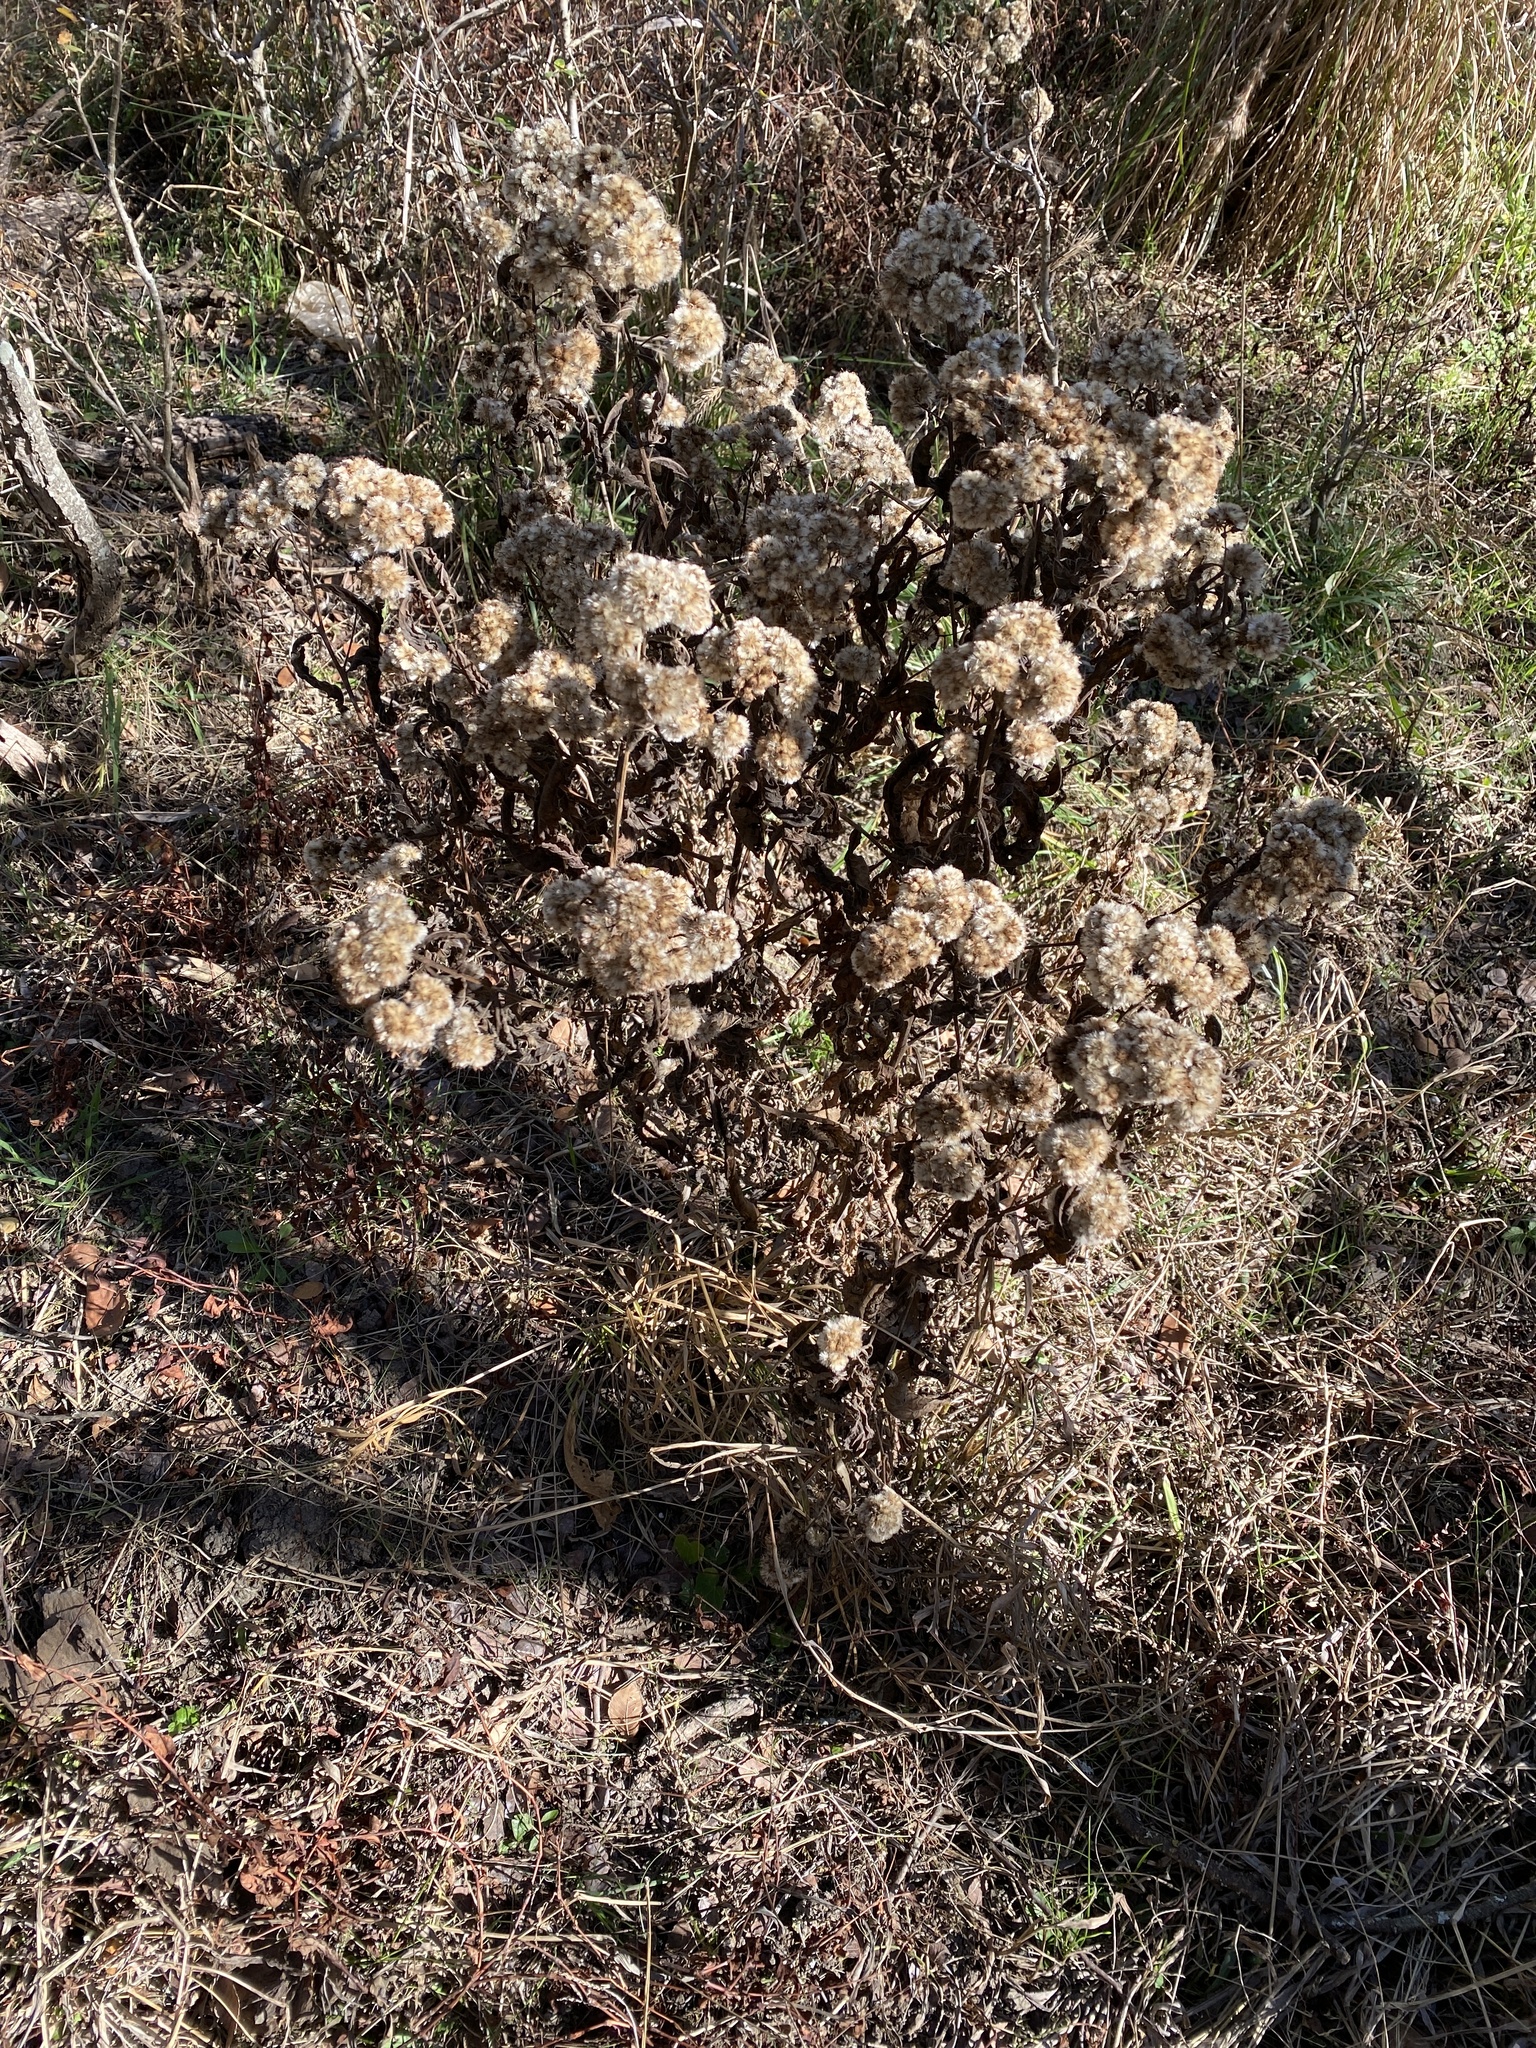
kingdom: Plantae
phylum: Tracheophyta
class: Magnoliopsida
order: Asterales
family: Asteraceae
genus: Pluchea
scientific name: Pluchea camphorata
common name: Camphor pluchea
